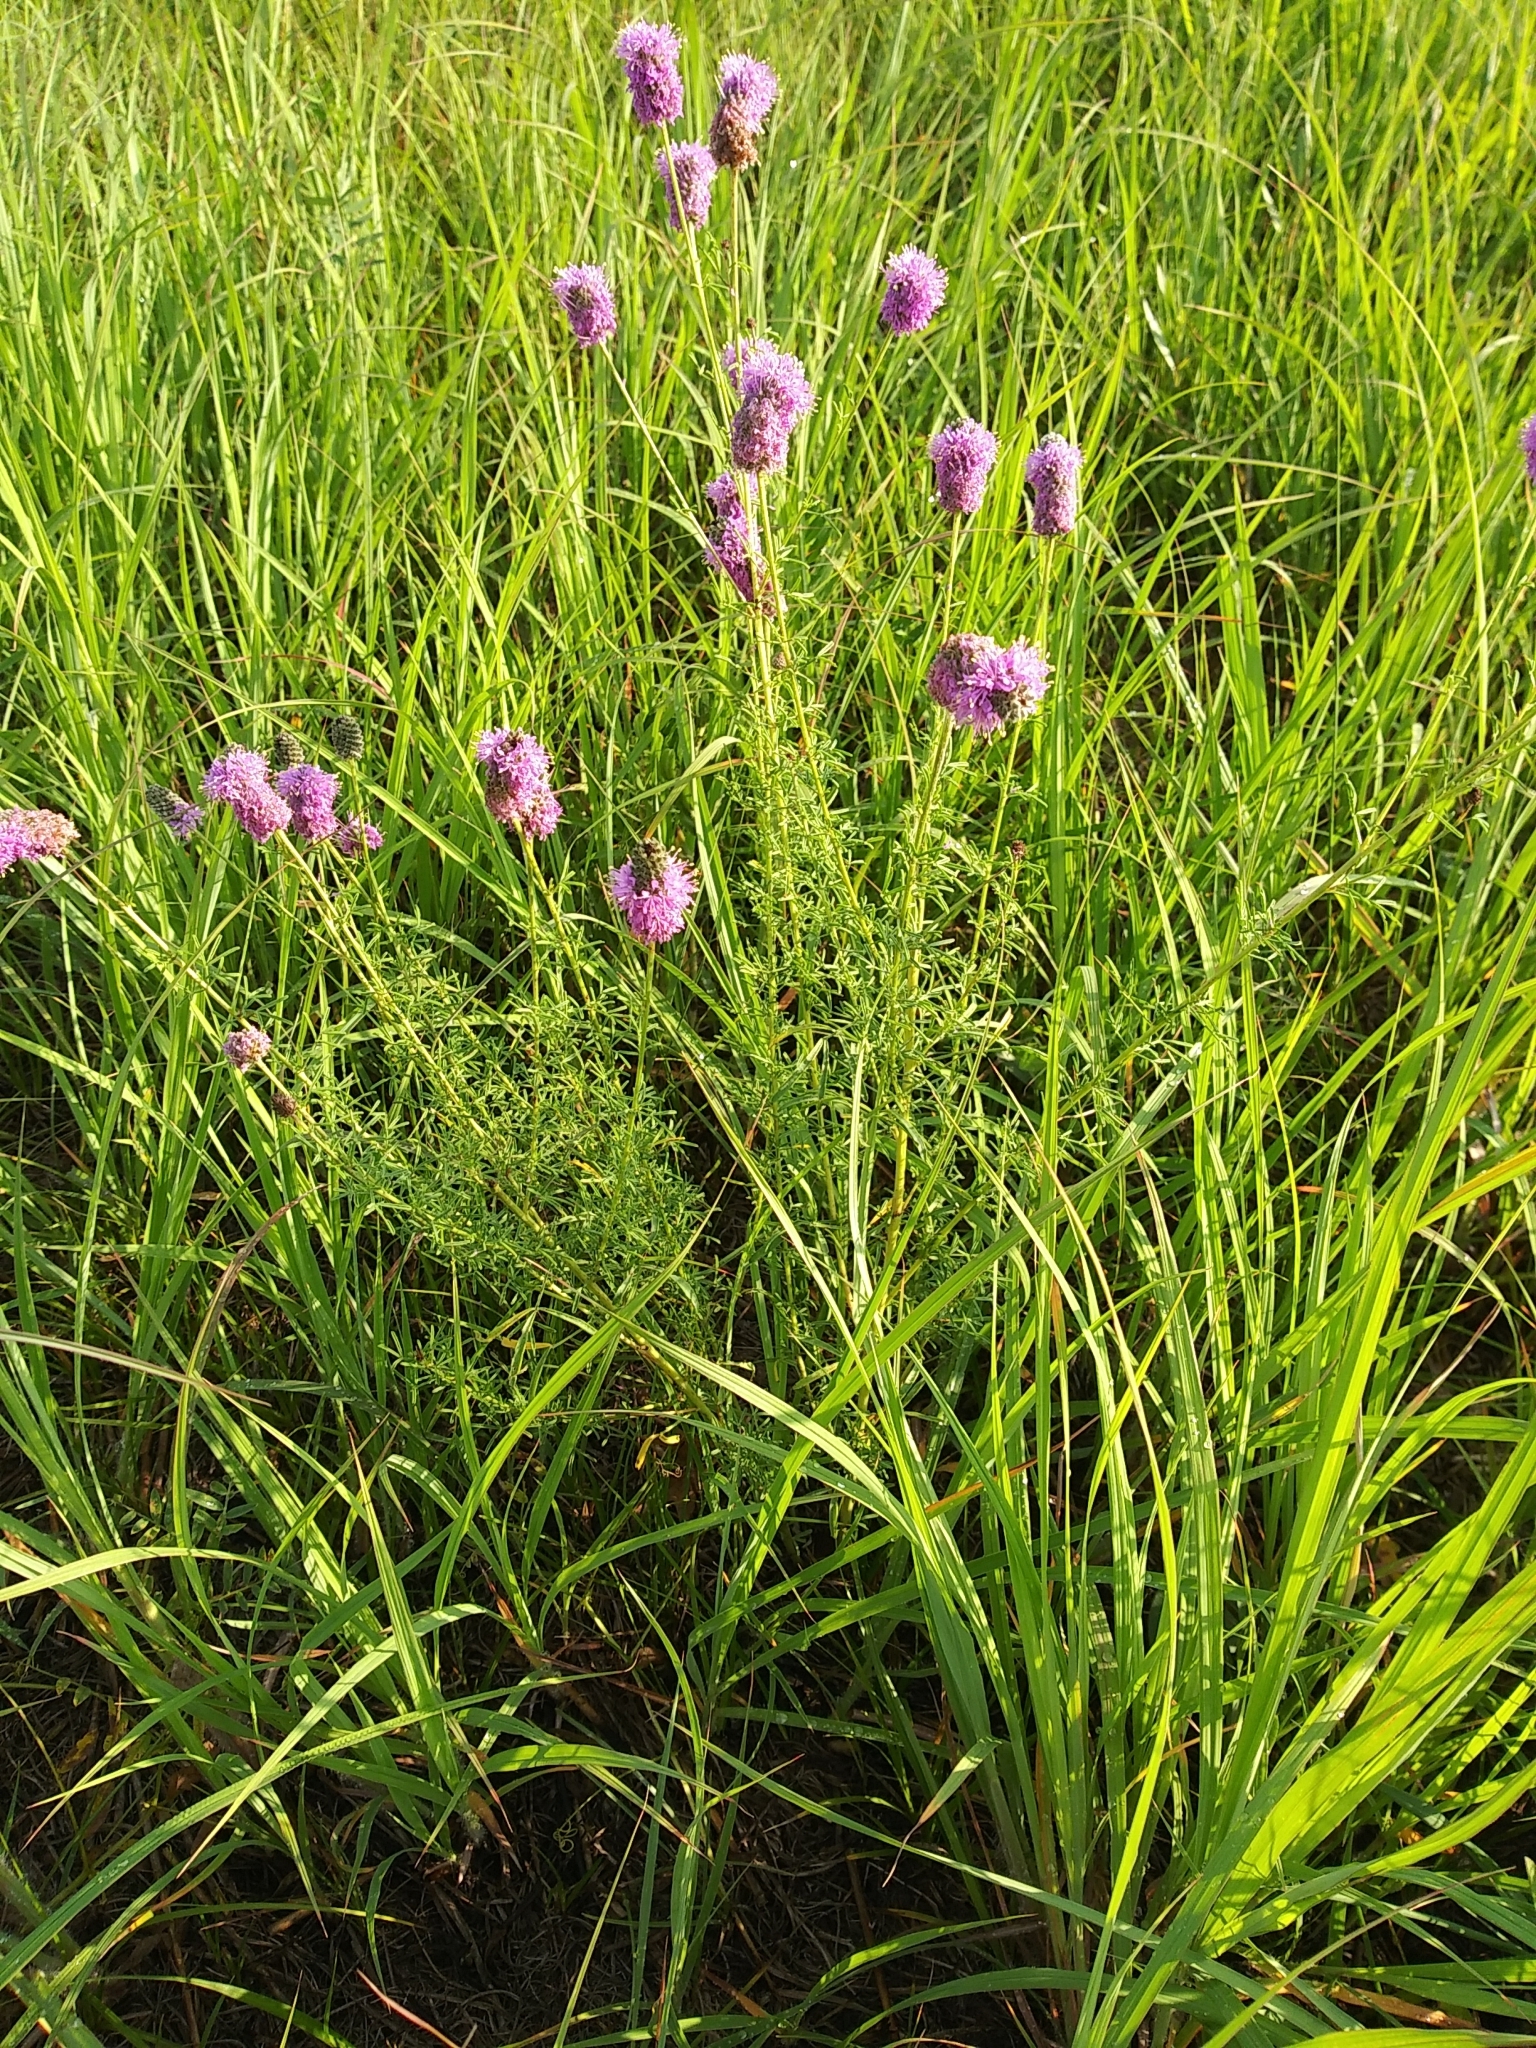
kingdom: Plantae
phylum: Tracheophyta
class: Magnoliopsida
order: Fabales
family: Fabaceae
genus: Dalea
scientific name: Dalea purpurea
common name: Purple prairie-clover
